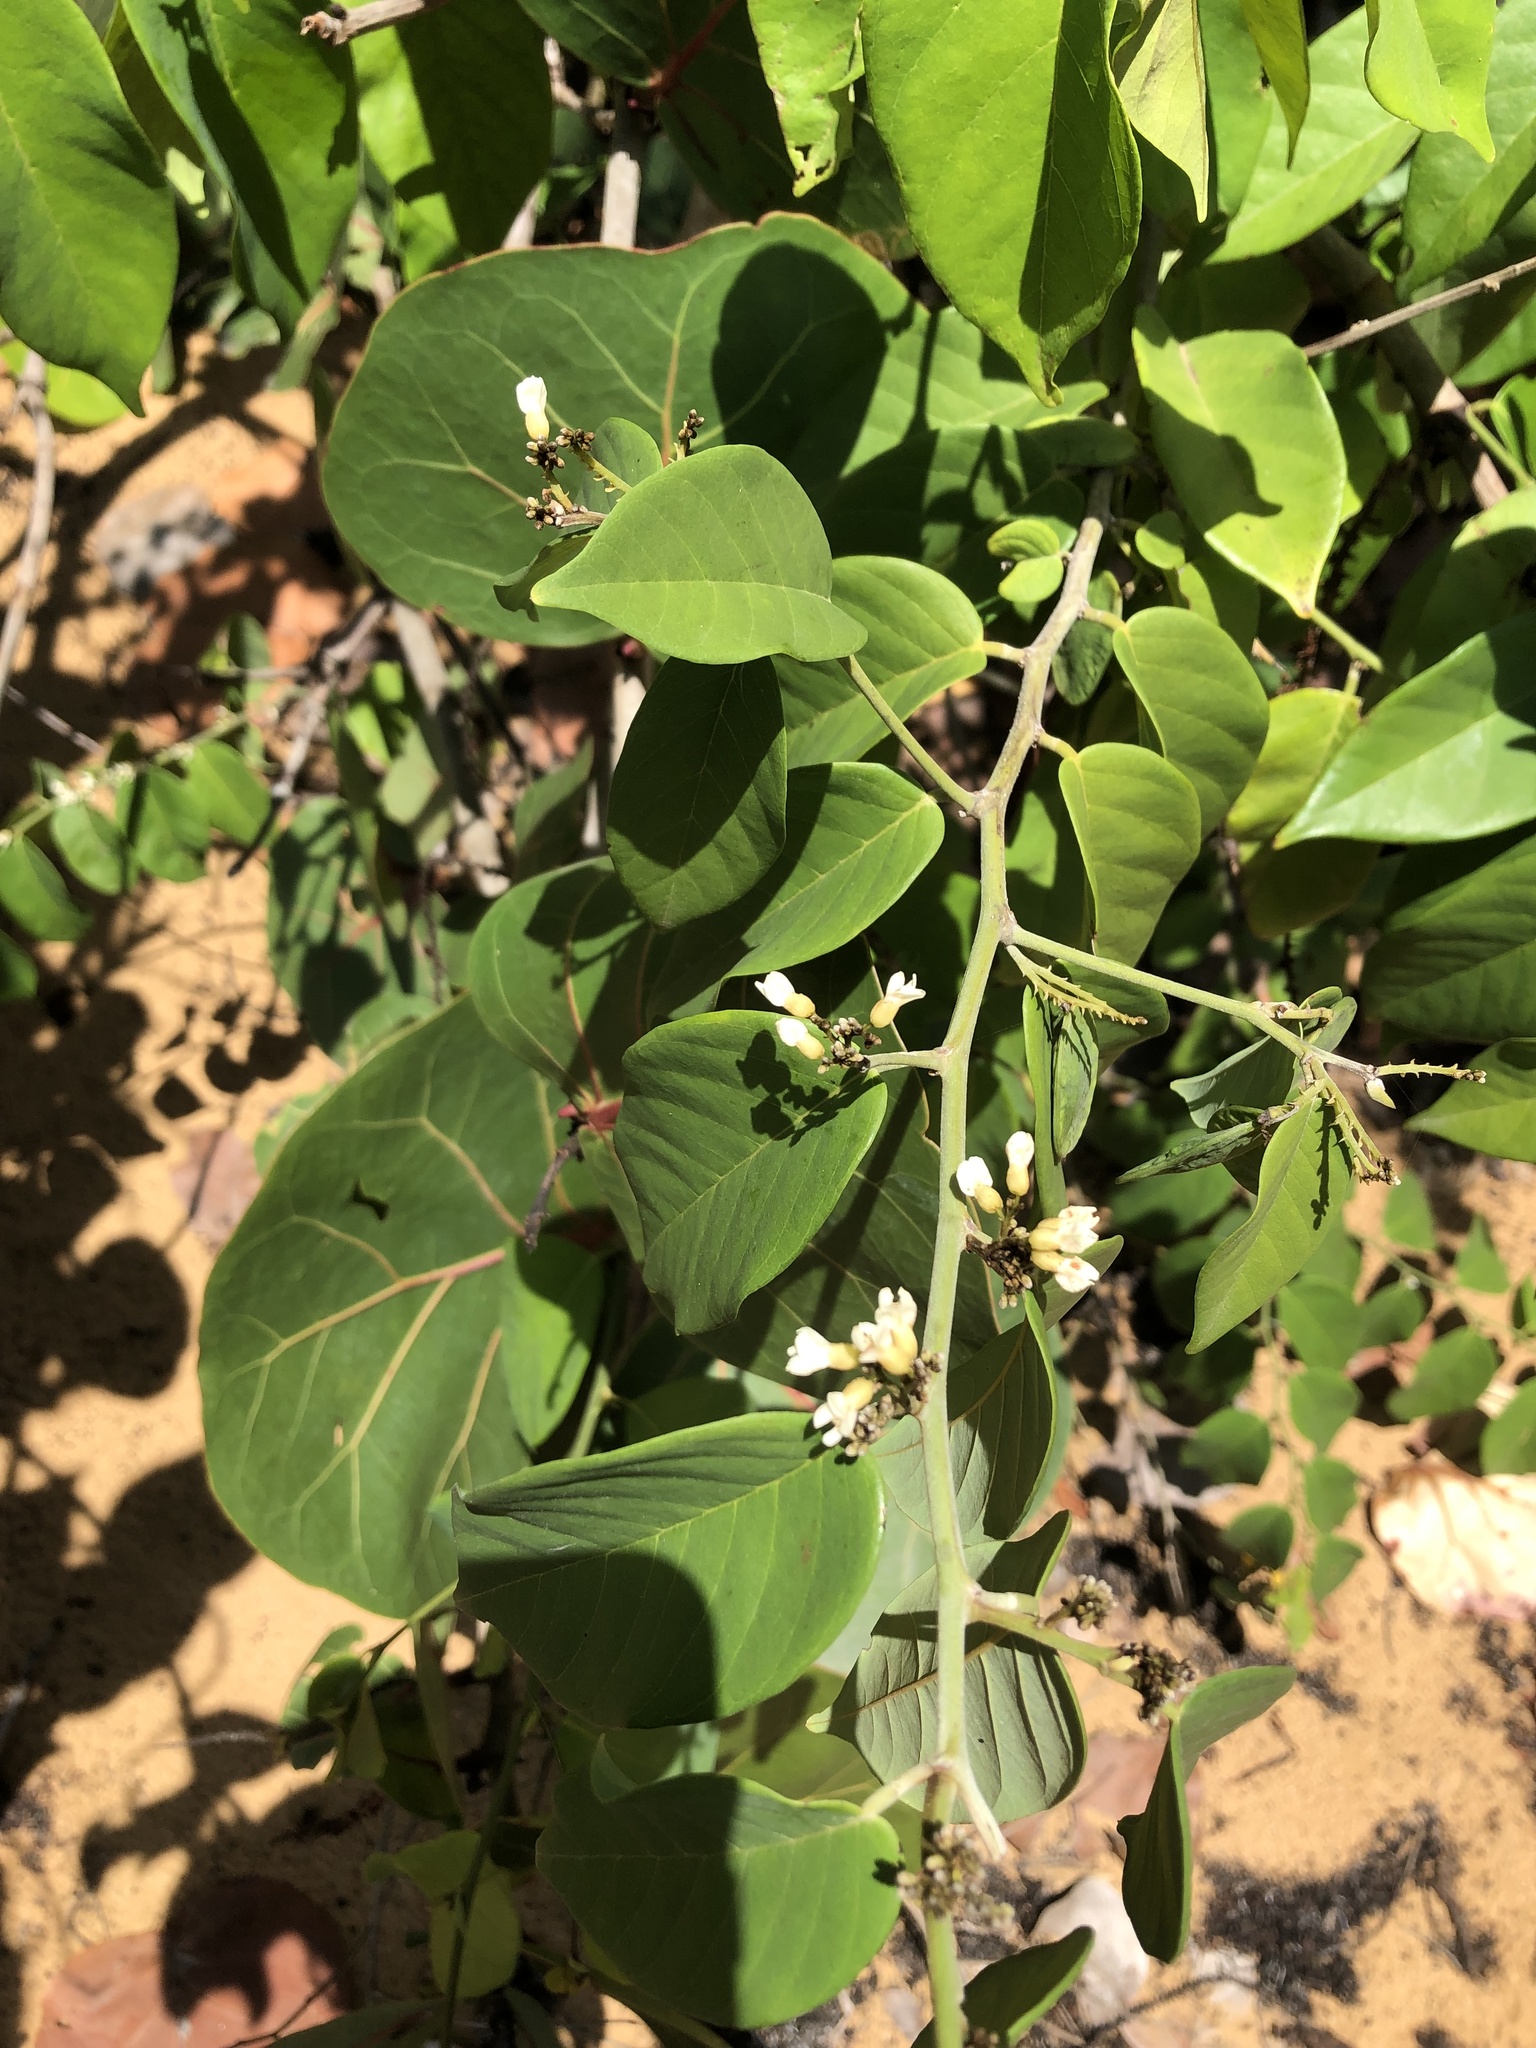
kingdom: Plantae
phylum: Tracheophyta
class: Magnoliopsida
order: Fabales
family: Fabaceae
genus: Dalbergia
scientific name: Dalbergia ecastaphyllum
